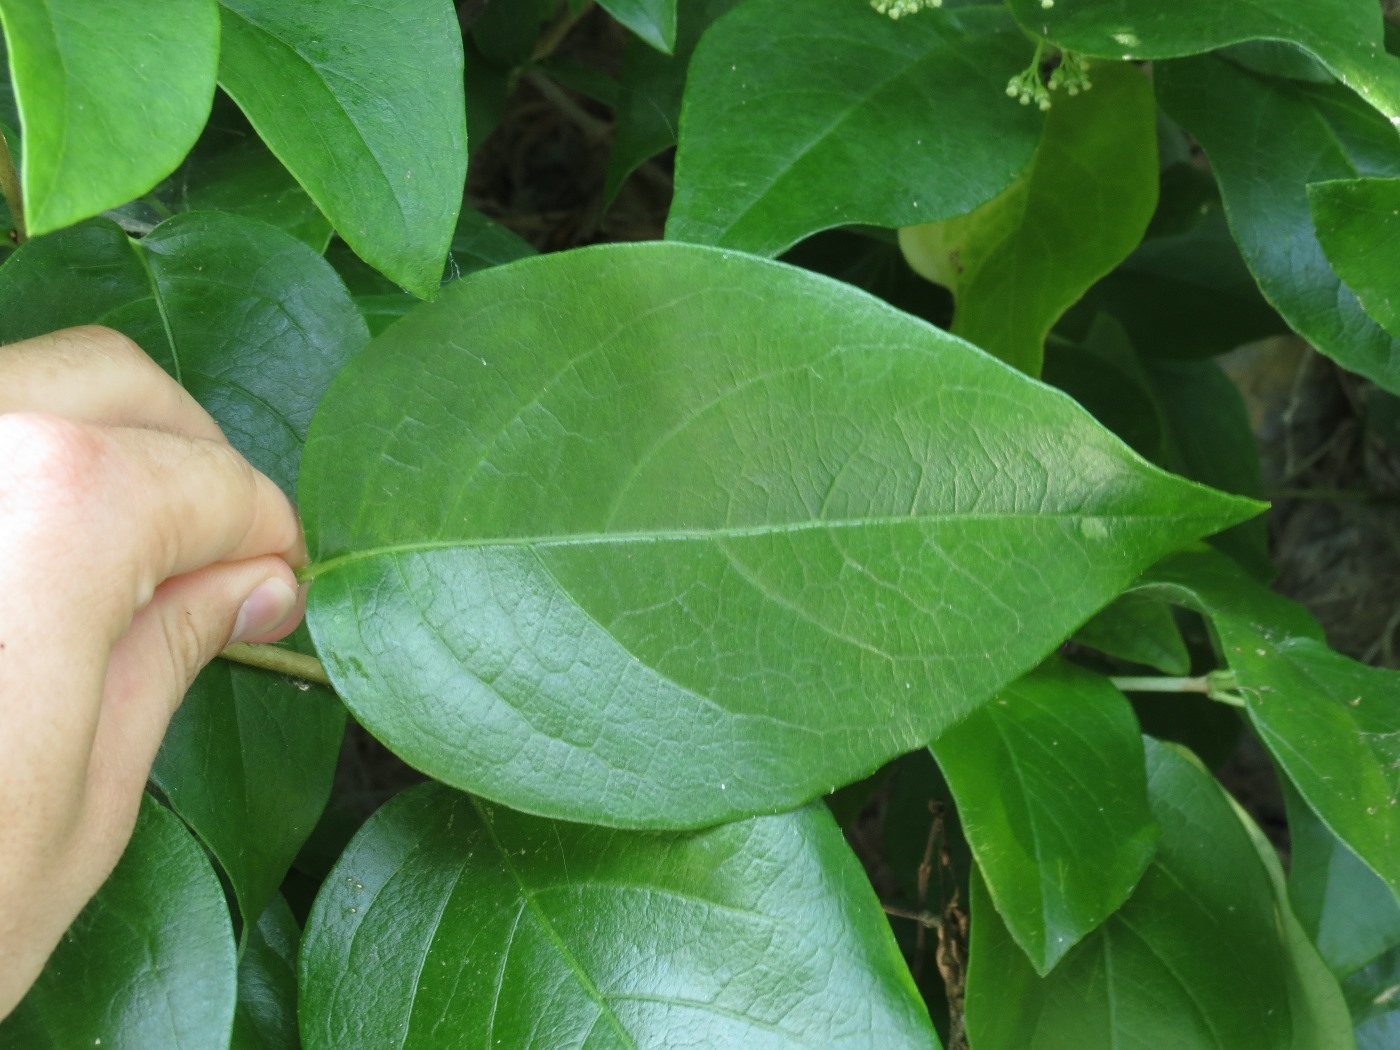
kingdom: Plantae
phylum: Tracheophyta
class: Magnoliopsida
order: Cornales
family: Hydrangeaceae
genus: Hydrangea
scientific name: Hydrangea barbara
